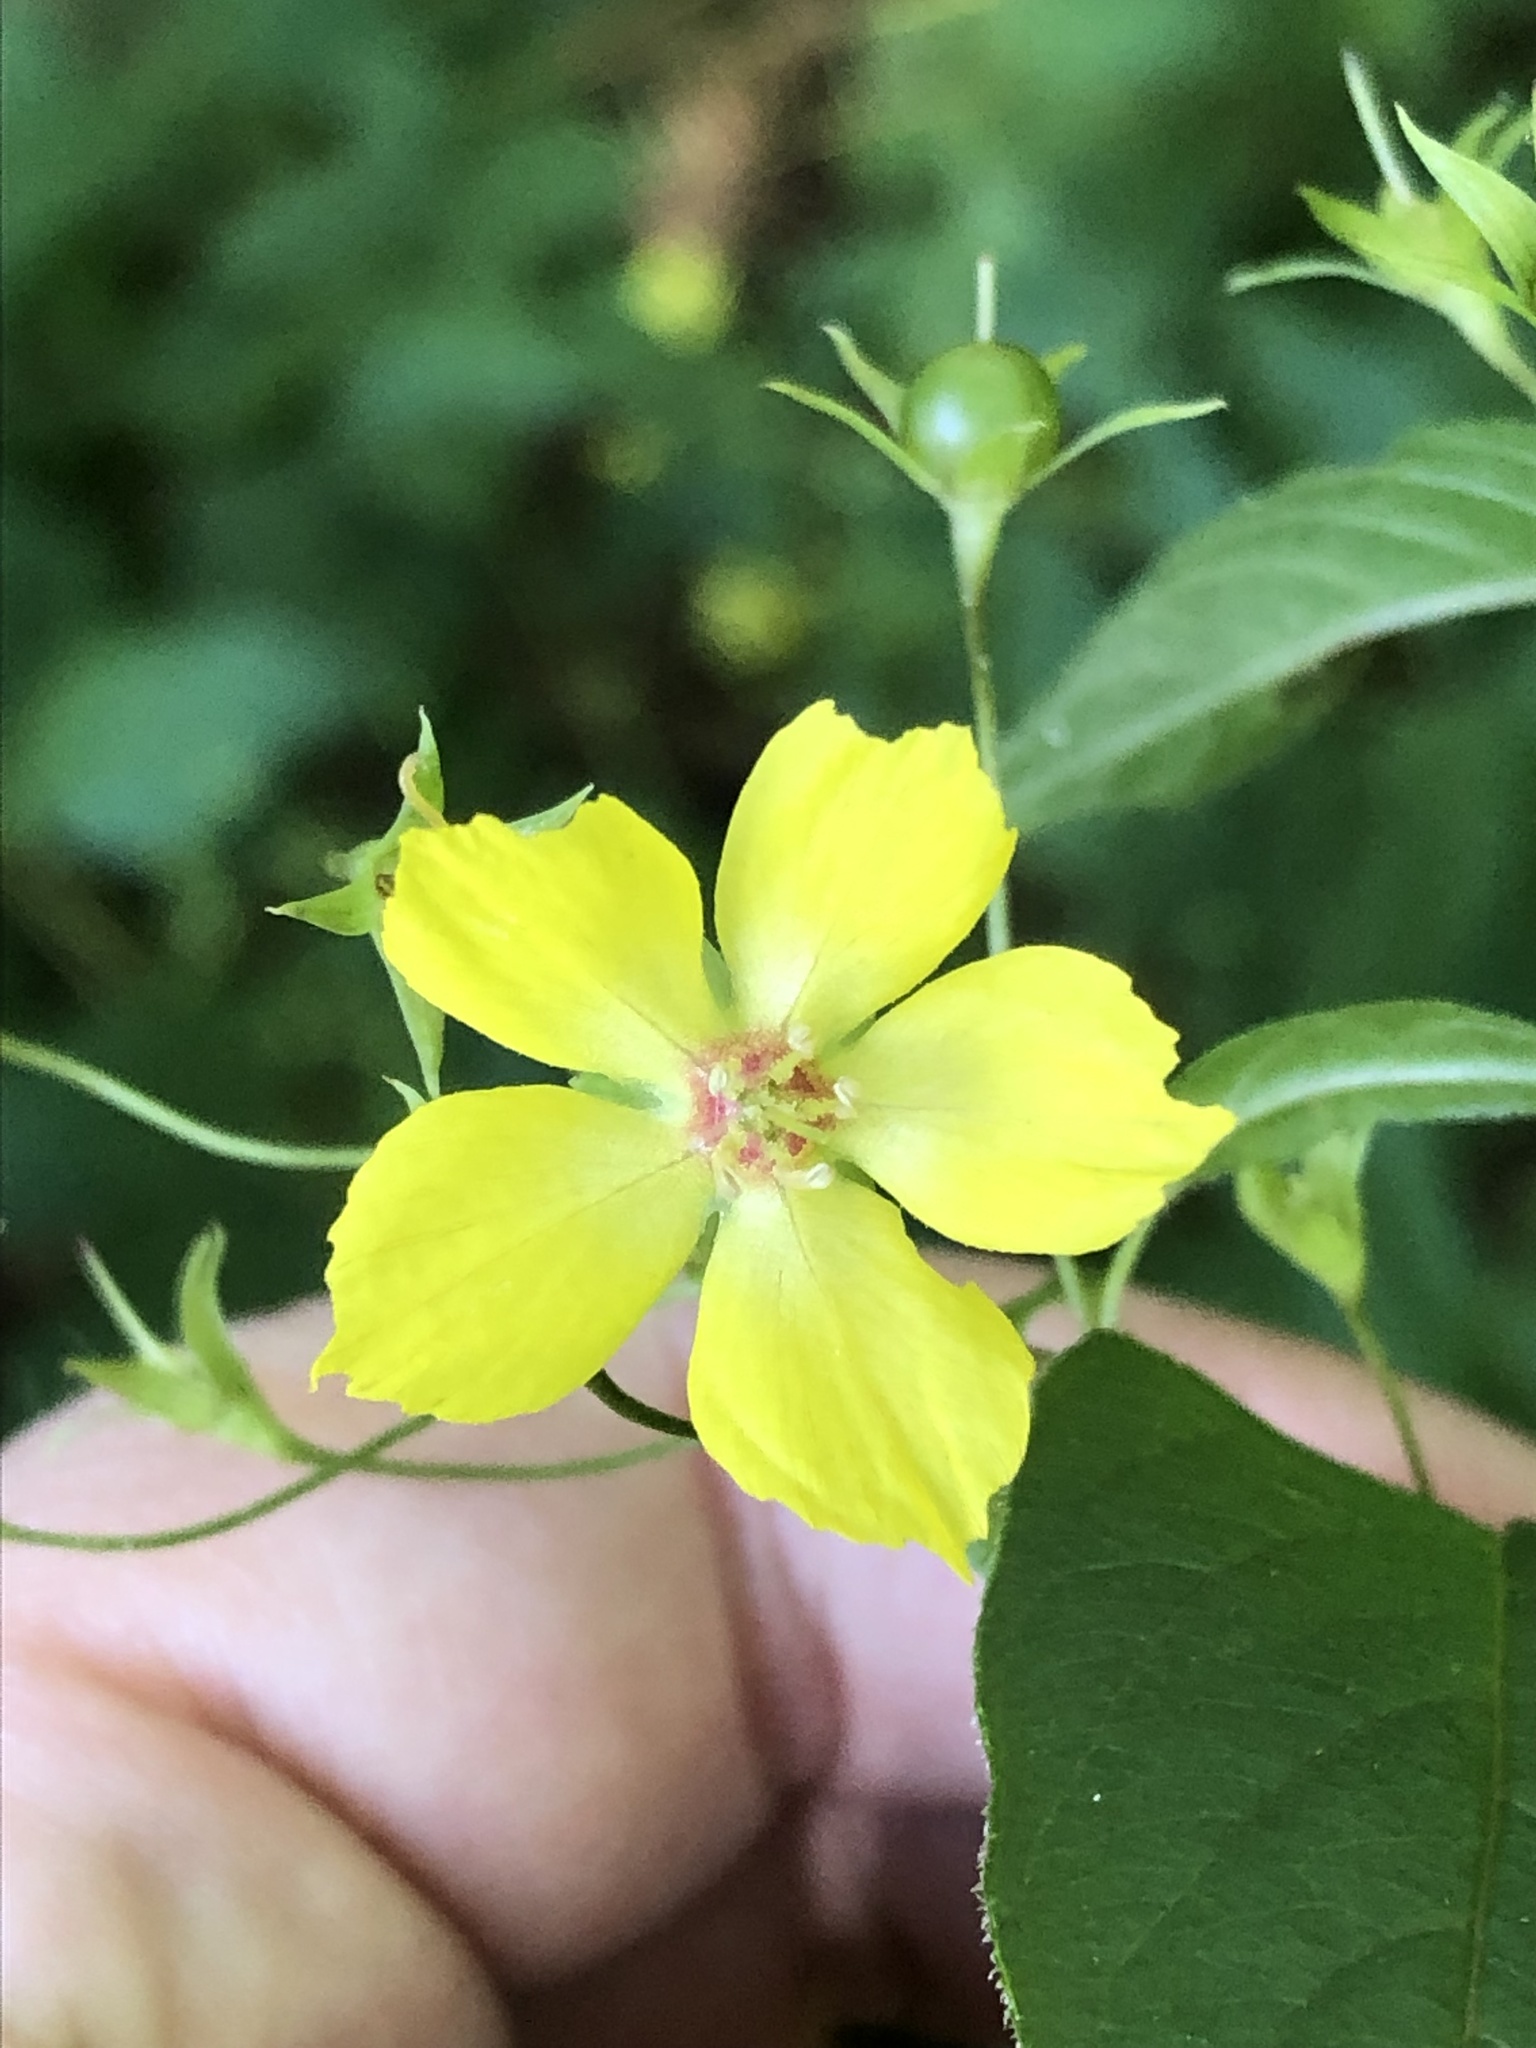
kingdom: Plantae
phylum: Tracheophyta
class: Magnoliopsida
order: Ericales
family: Primulaceae
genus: Lysimachia
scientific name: Lysimachia ciliata
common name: Fringed loosestrife
